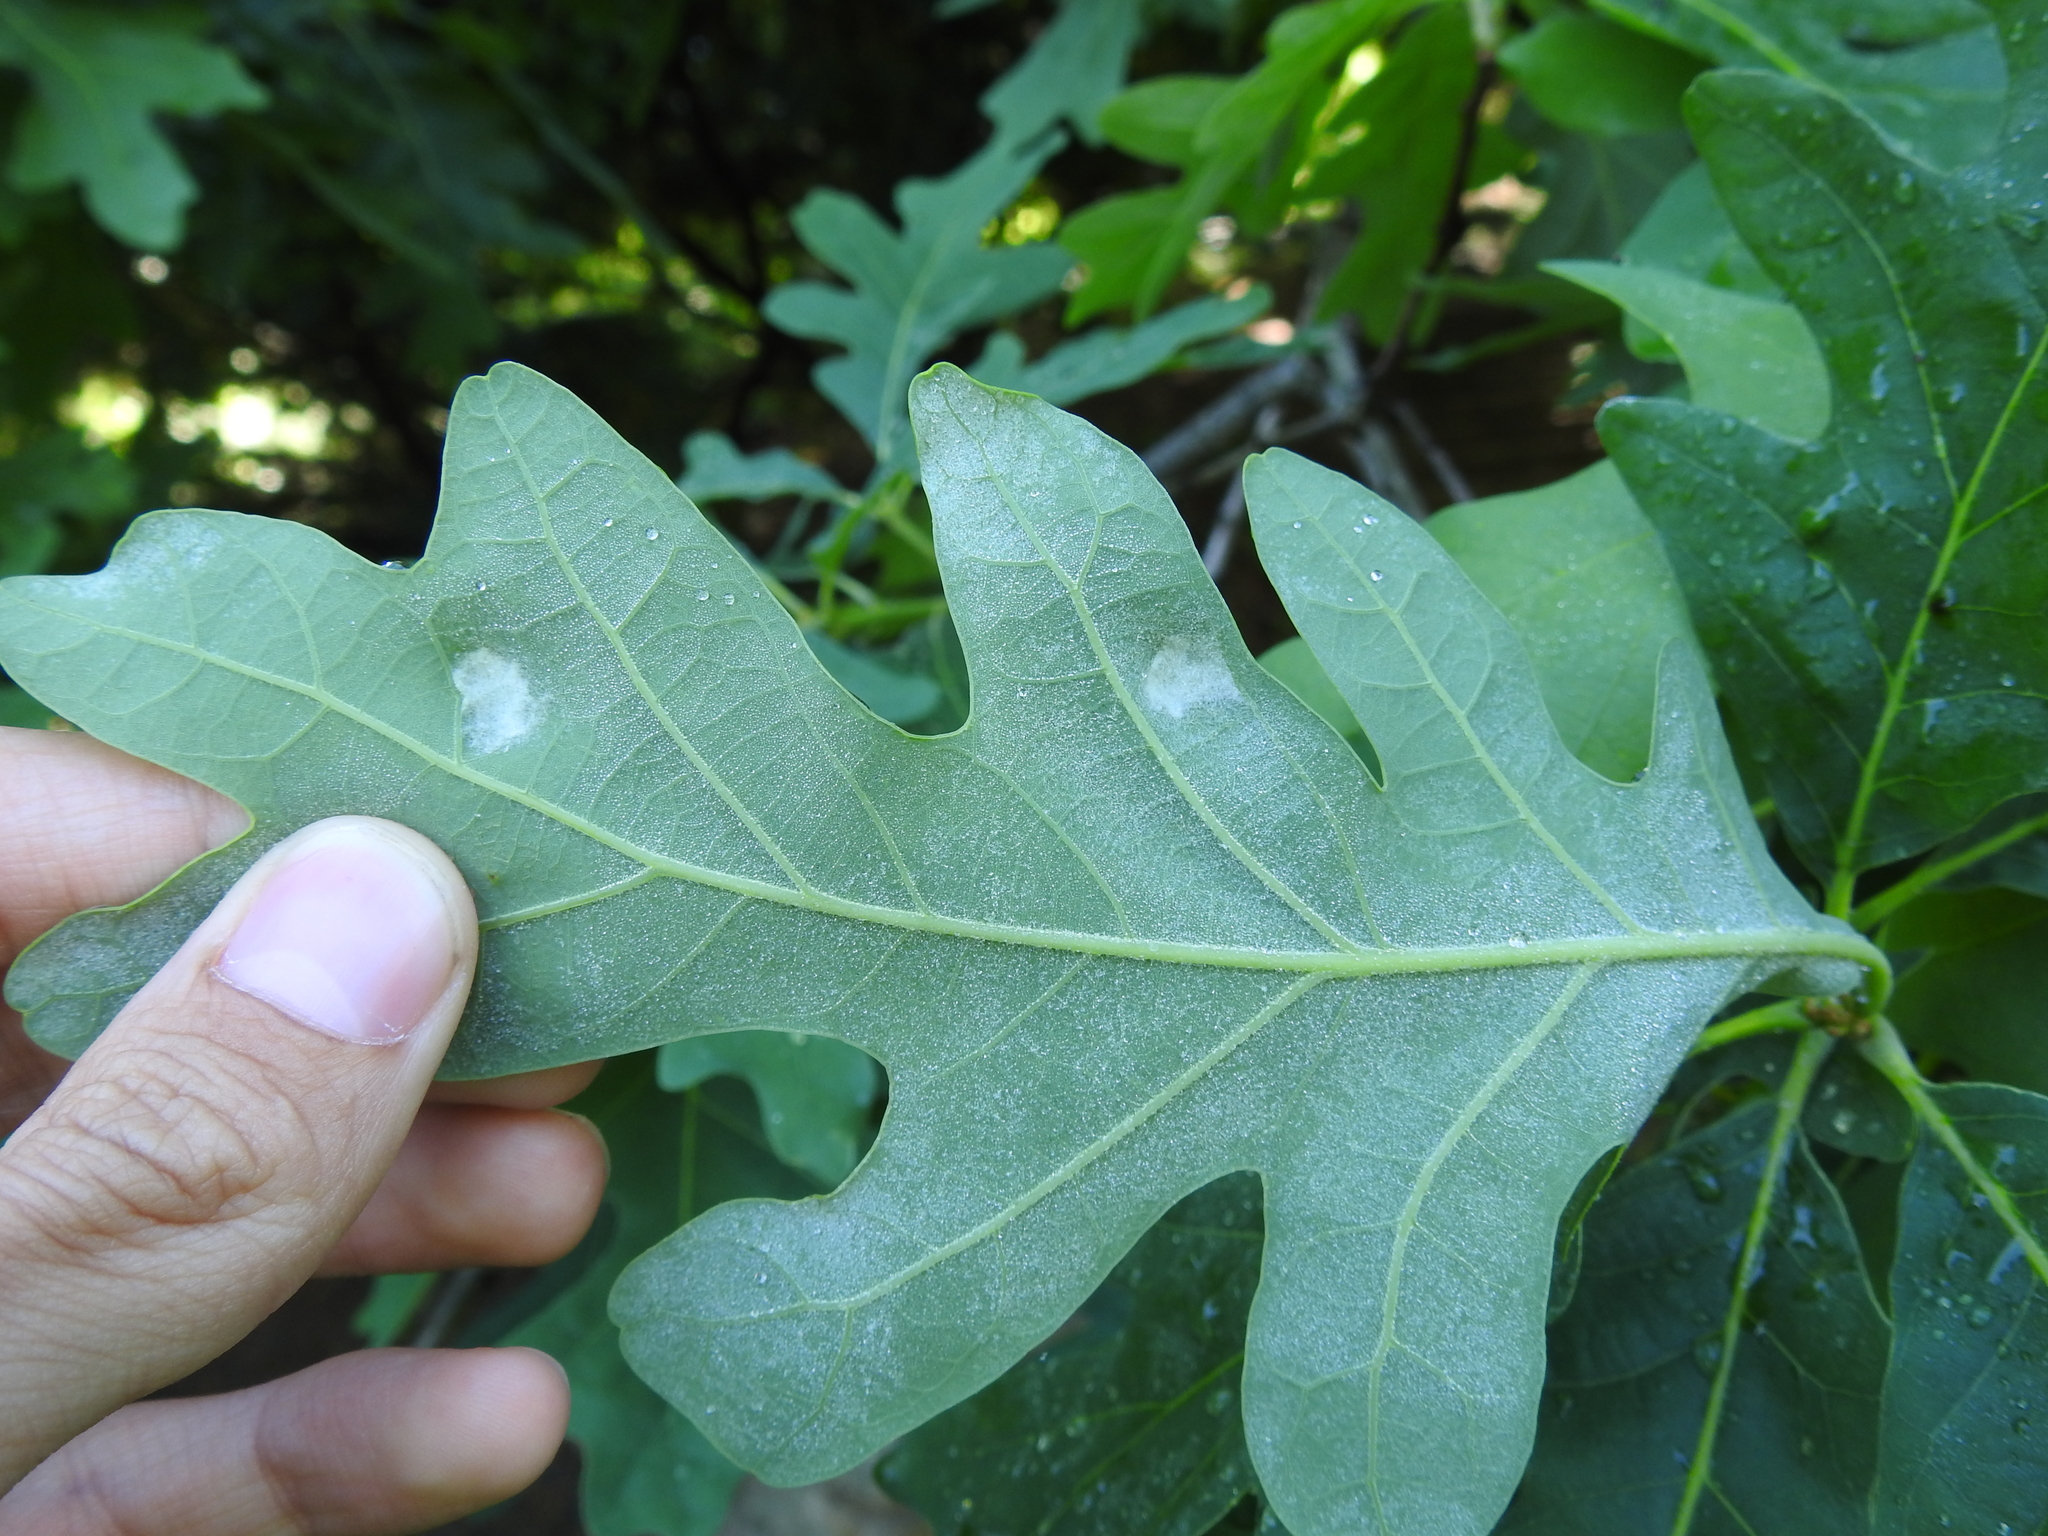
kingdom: Animalia
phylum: Arthropoda
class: Arachnida
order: Trombidiformes
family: Eriophyidae
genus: Aceria
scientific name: Aceria
